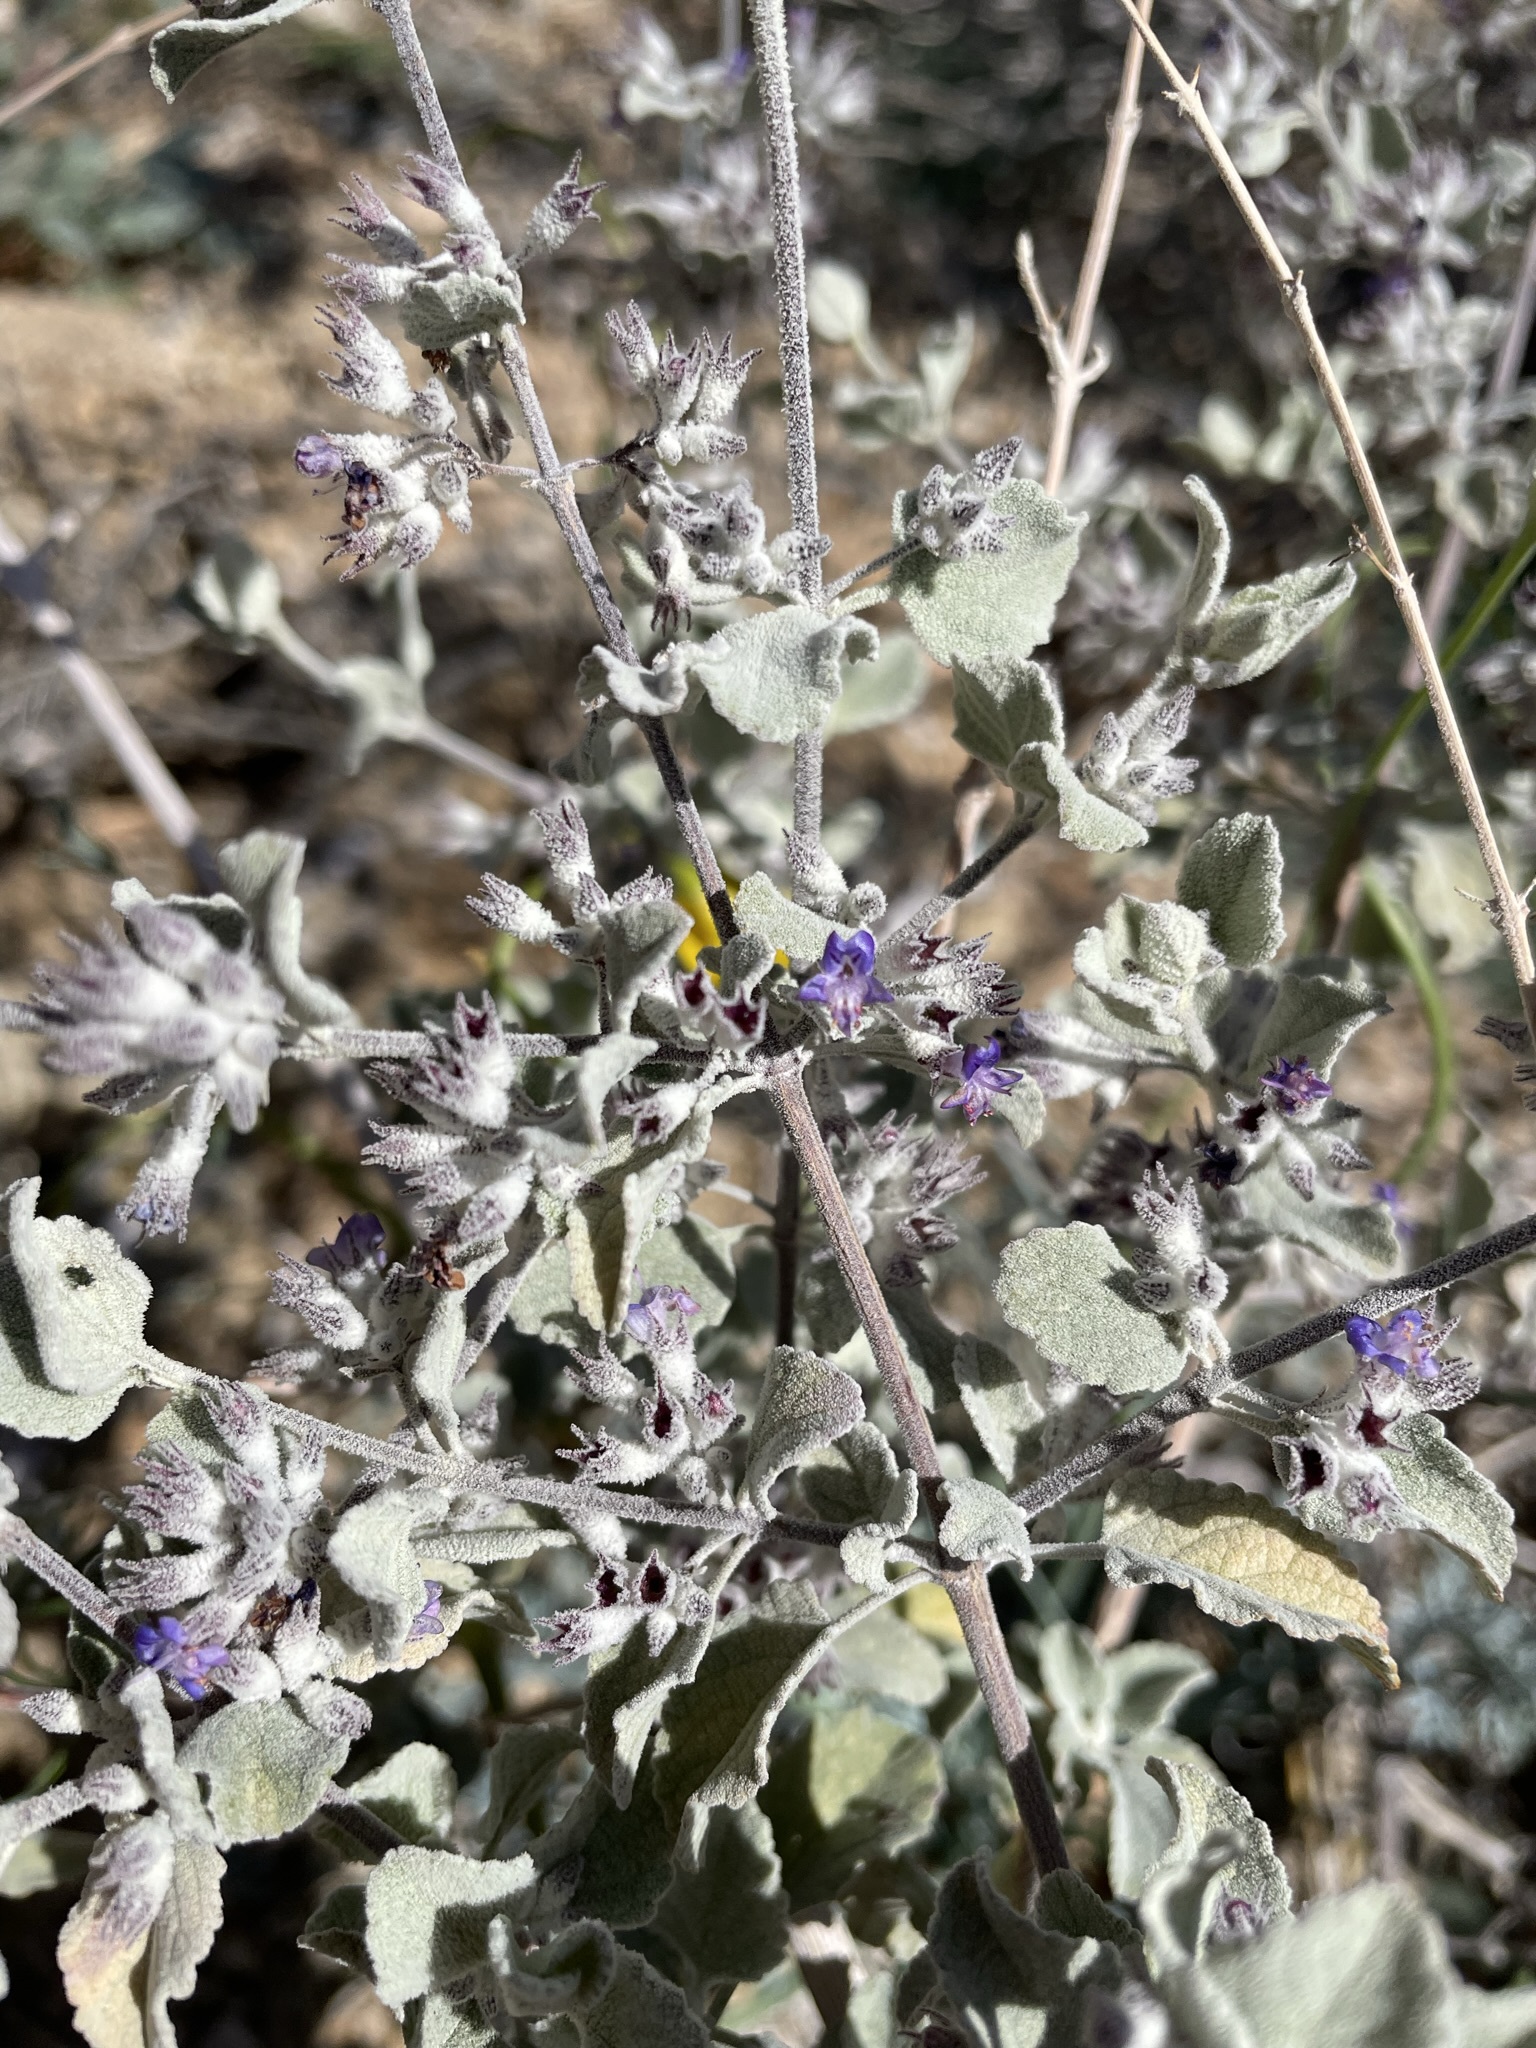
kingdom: Plantae
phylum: Tracheophyta
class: Magnoliopsida
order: Lamiales
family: Lamiaceae
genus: Condea
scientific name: Condea emoryi
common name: Chia
